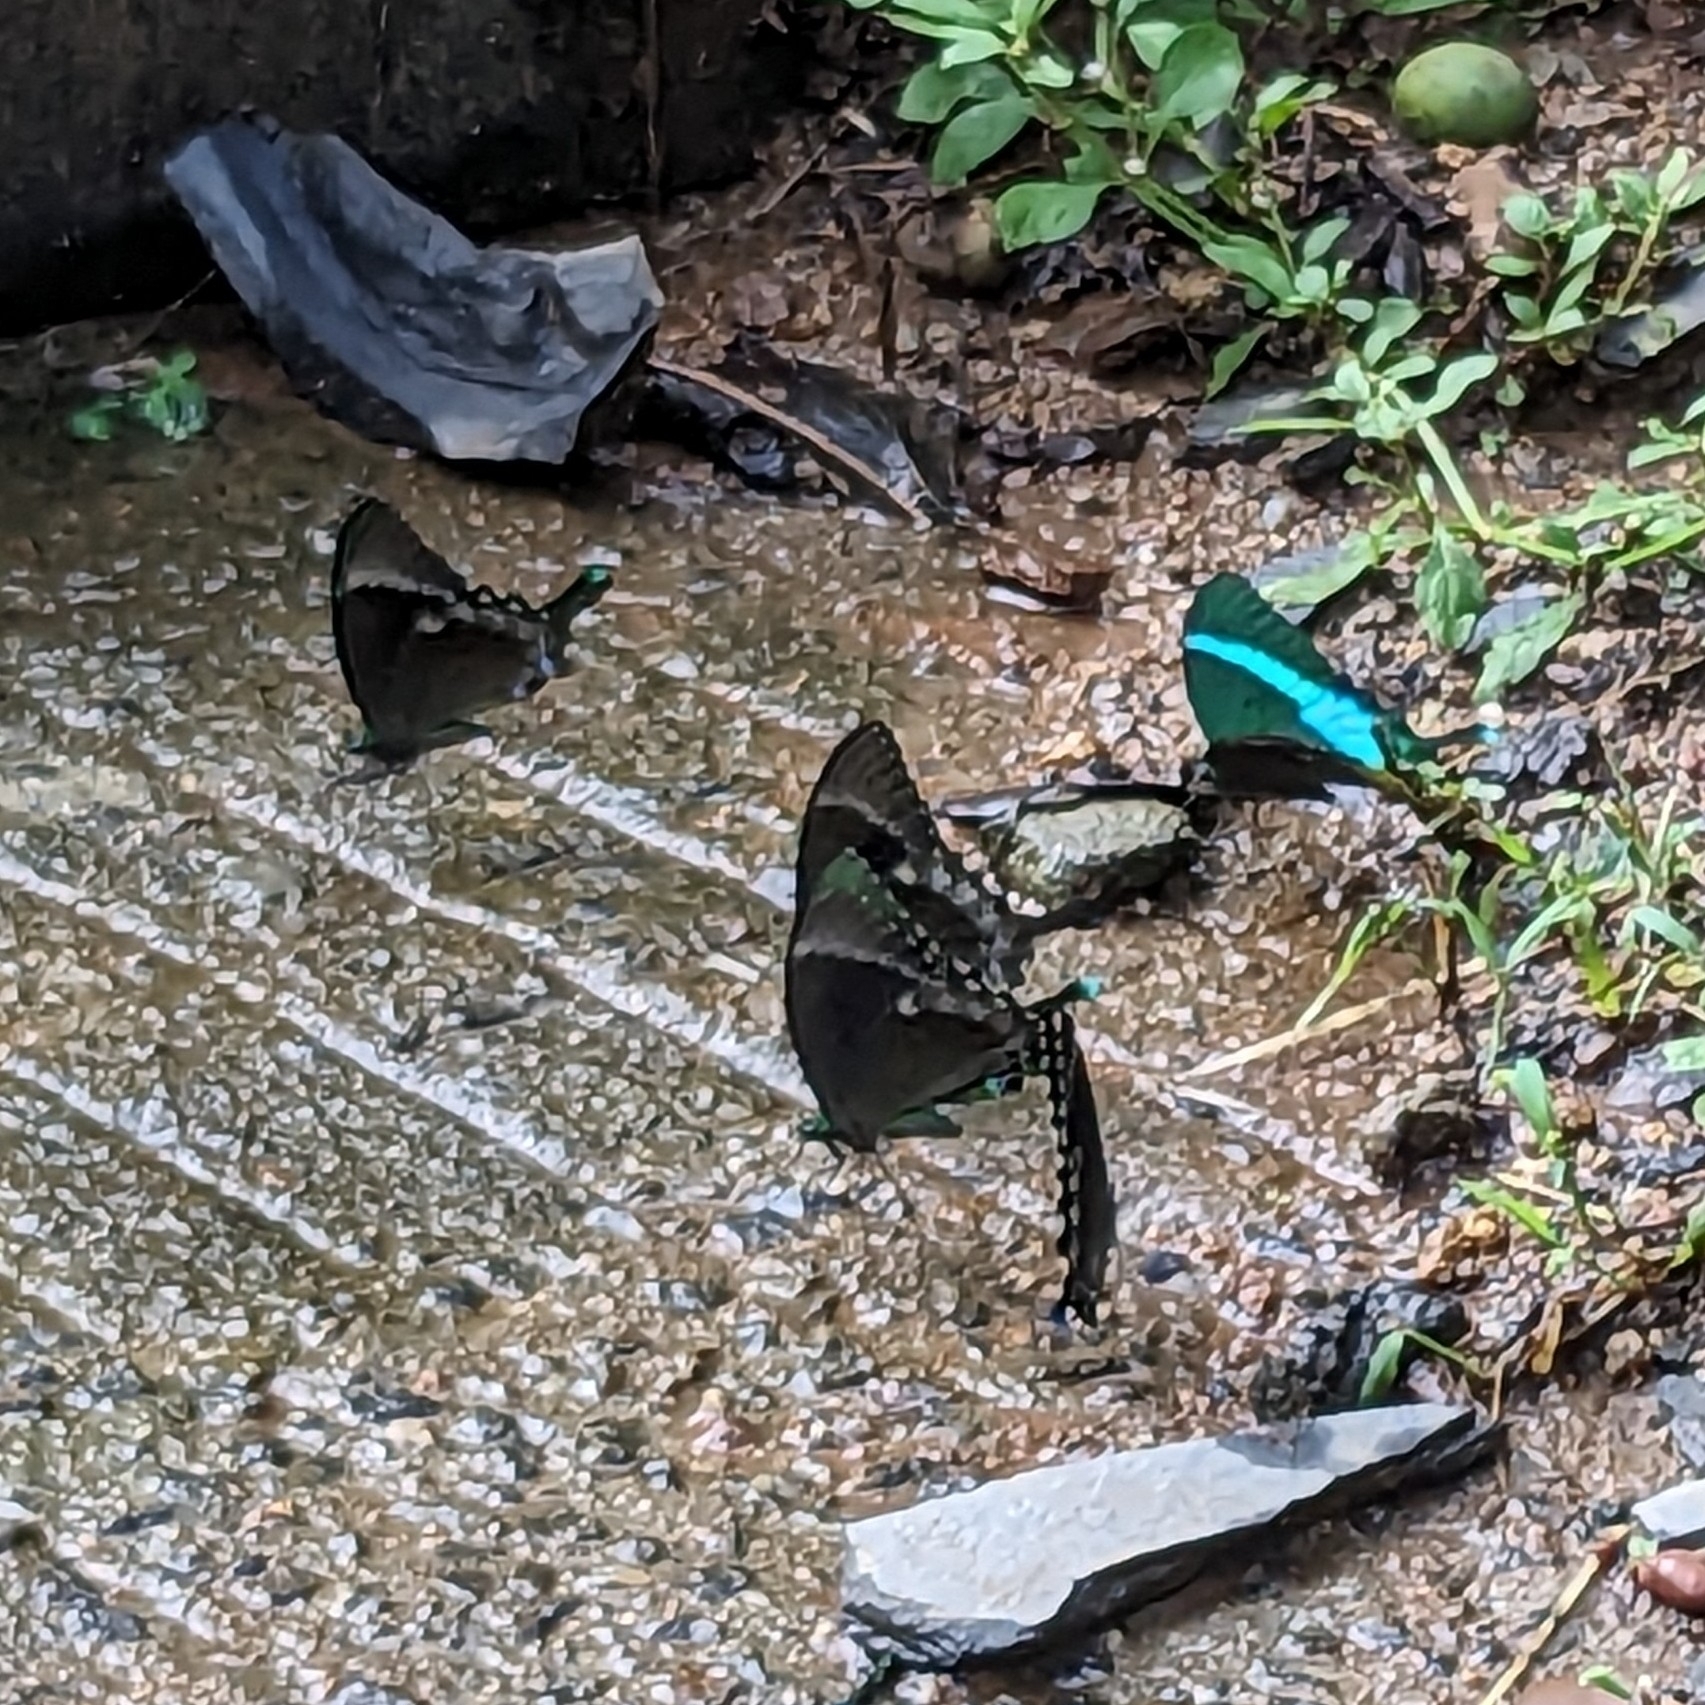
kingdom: Animalia
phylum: Arthropoda
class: Insecta
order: Lepidoptera
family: Papilionidae
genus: Papilio
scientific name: Papilio crino
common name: Common banded peacock
